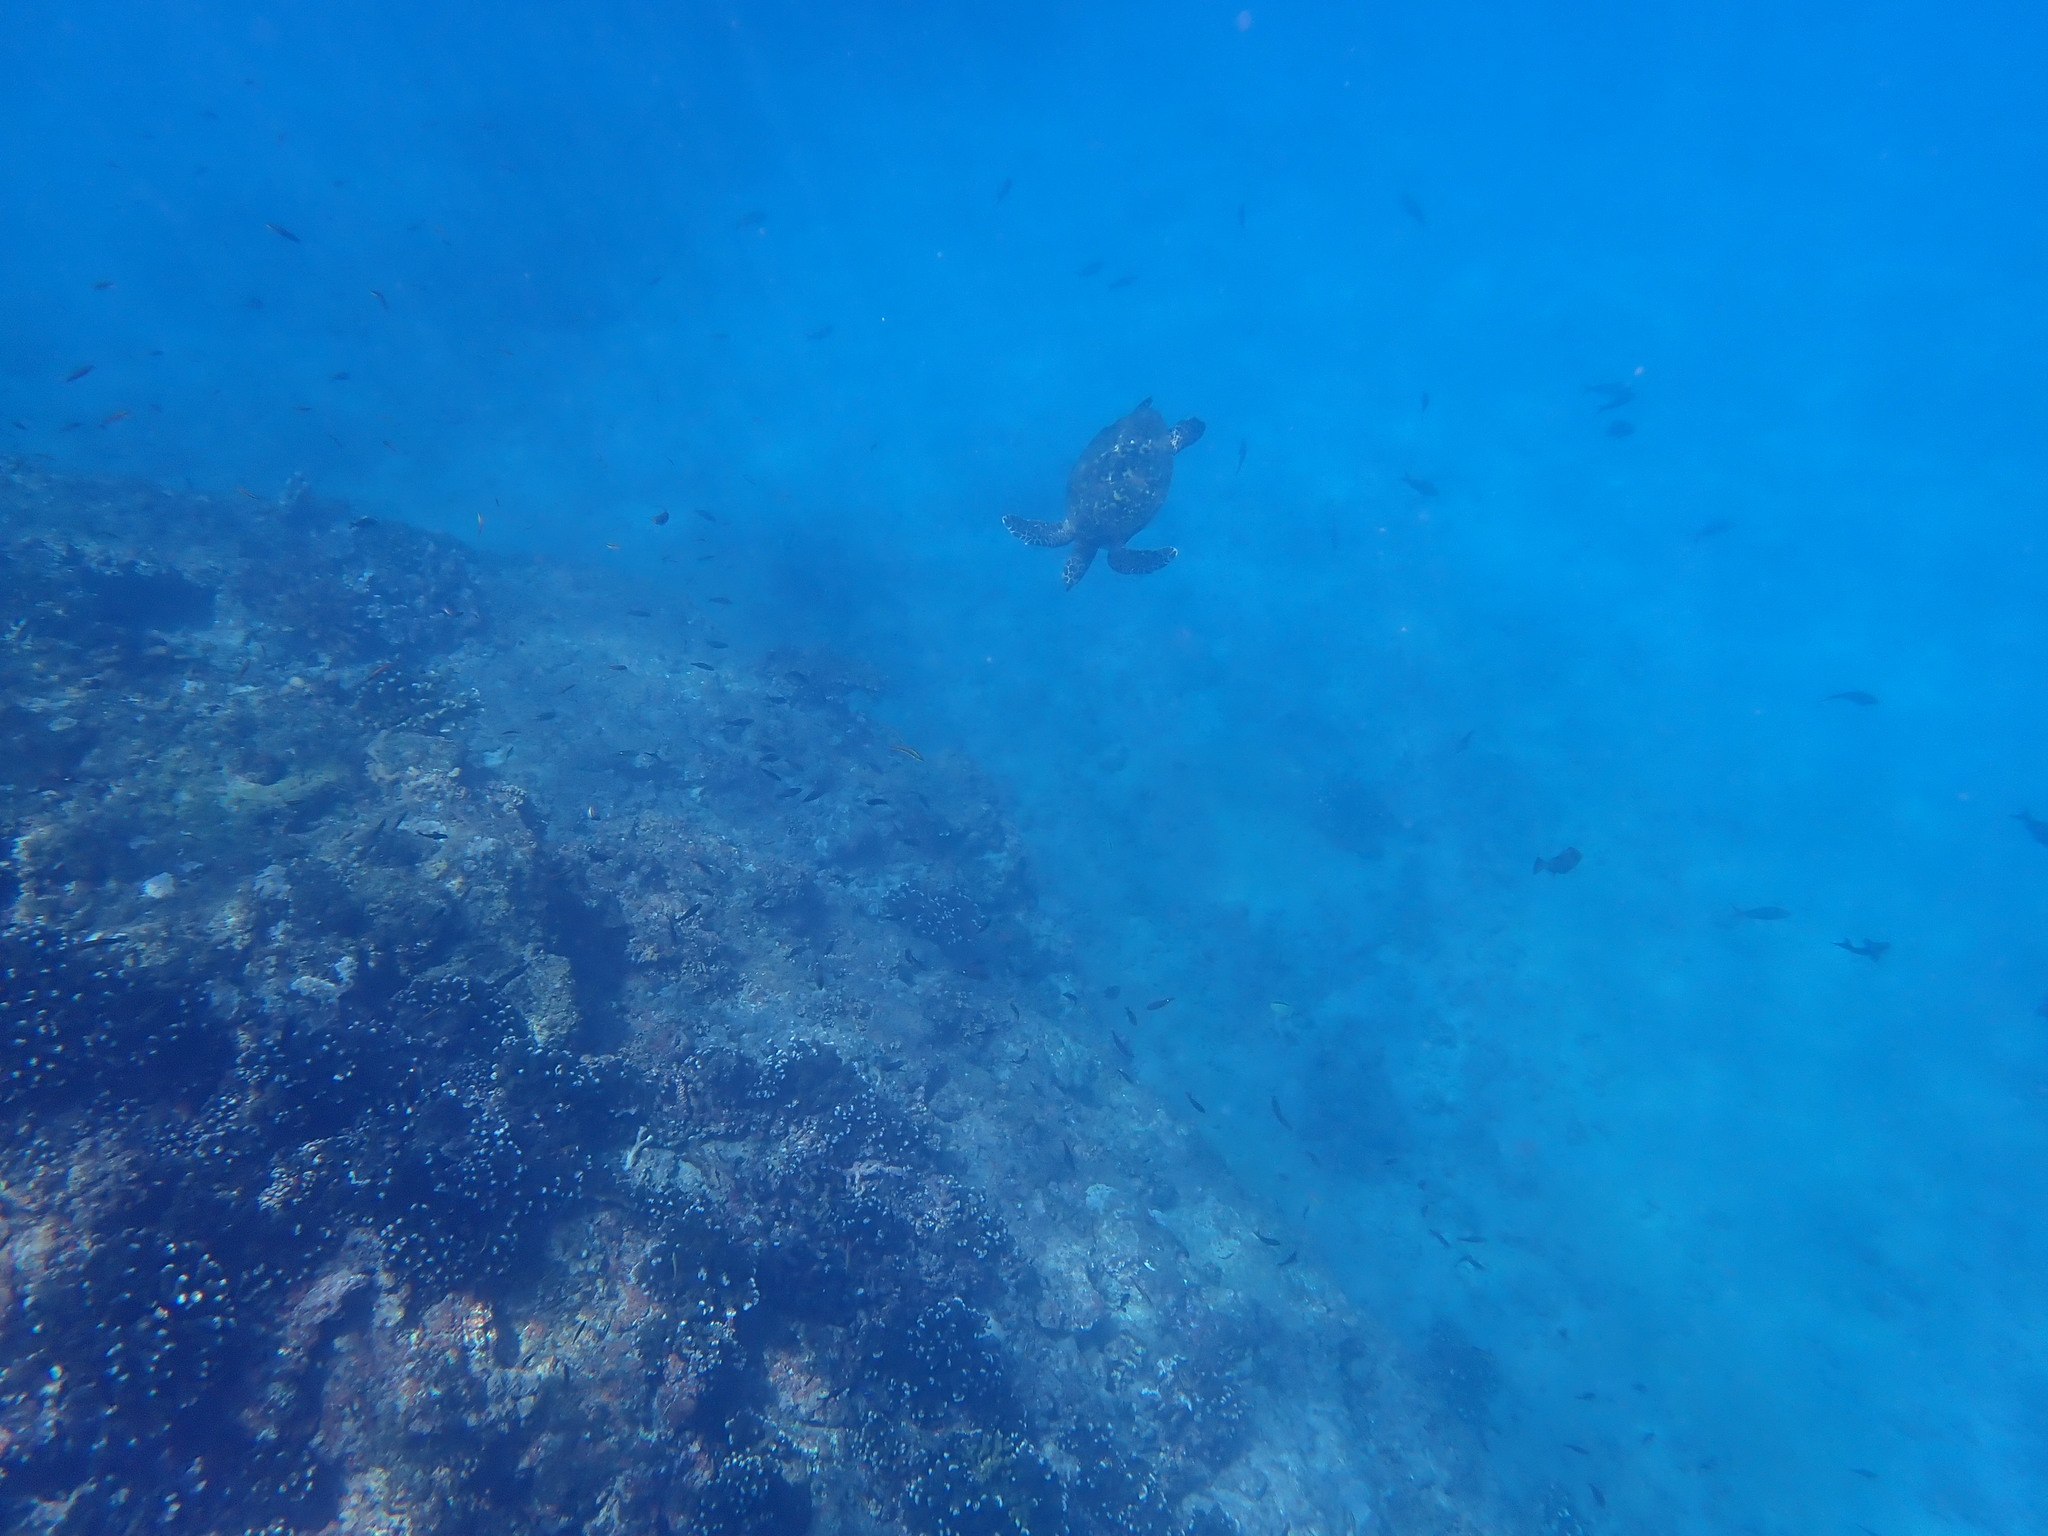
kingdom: Animalia
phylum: Chordata
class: Testudines
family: Cheloniidae
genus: Eretmochelys
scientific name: Eretmochelys imbricata
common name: Hawksbill turtle
